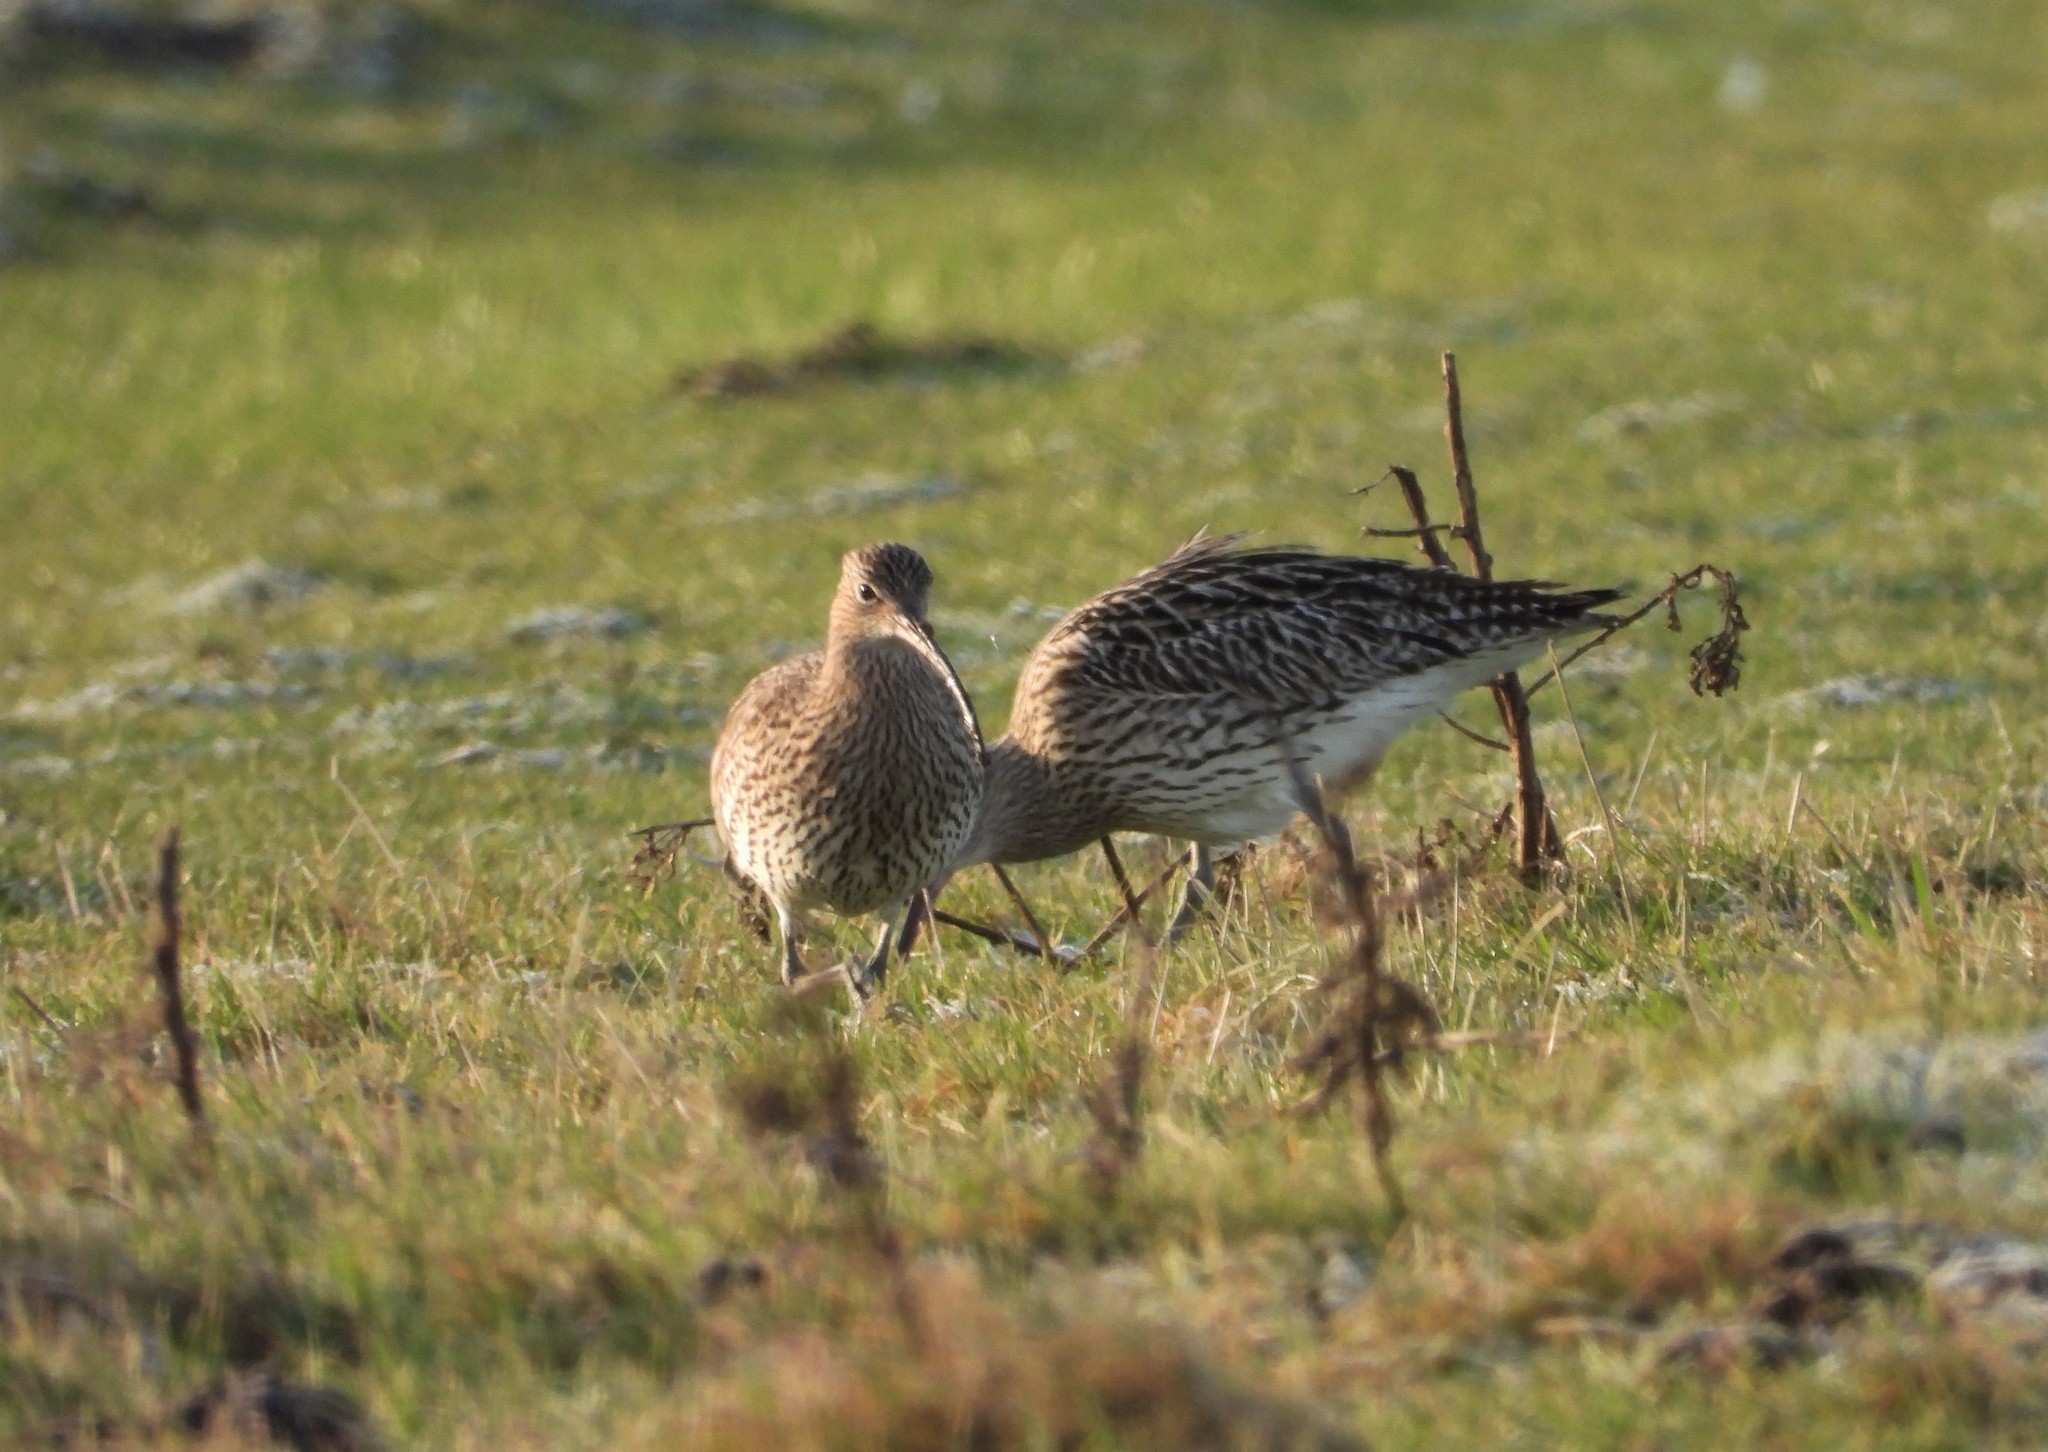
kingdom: Animalia
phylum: Chordata
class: Aves
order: Charadriiformes
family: Scolopacidae
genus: Numenius
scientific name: Numenius arquata
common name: Eurasian curlew
